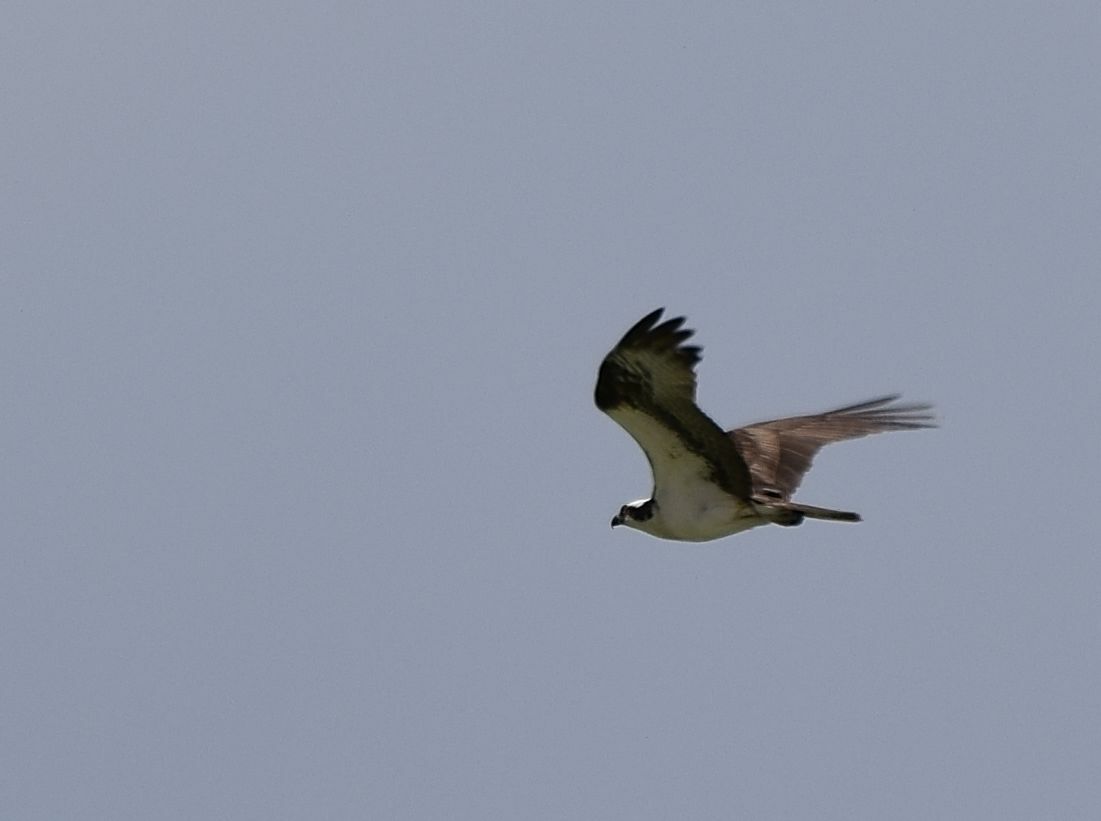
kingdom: Animalia
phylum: Chordata
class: Aves
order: Accipitriformes
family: Pandionidae
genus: Pandion
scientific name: Pandion haliaetus
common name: Osprey
